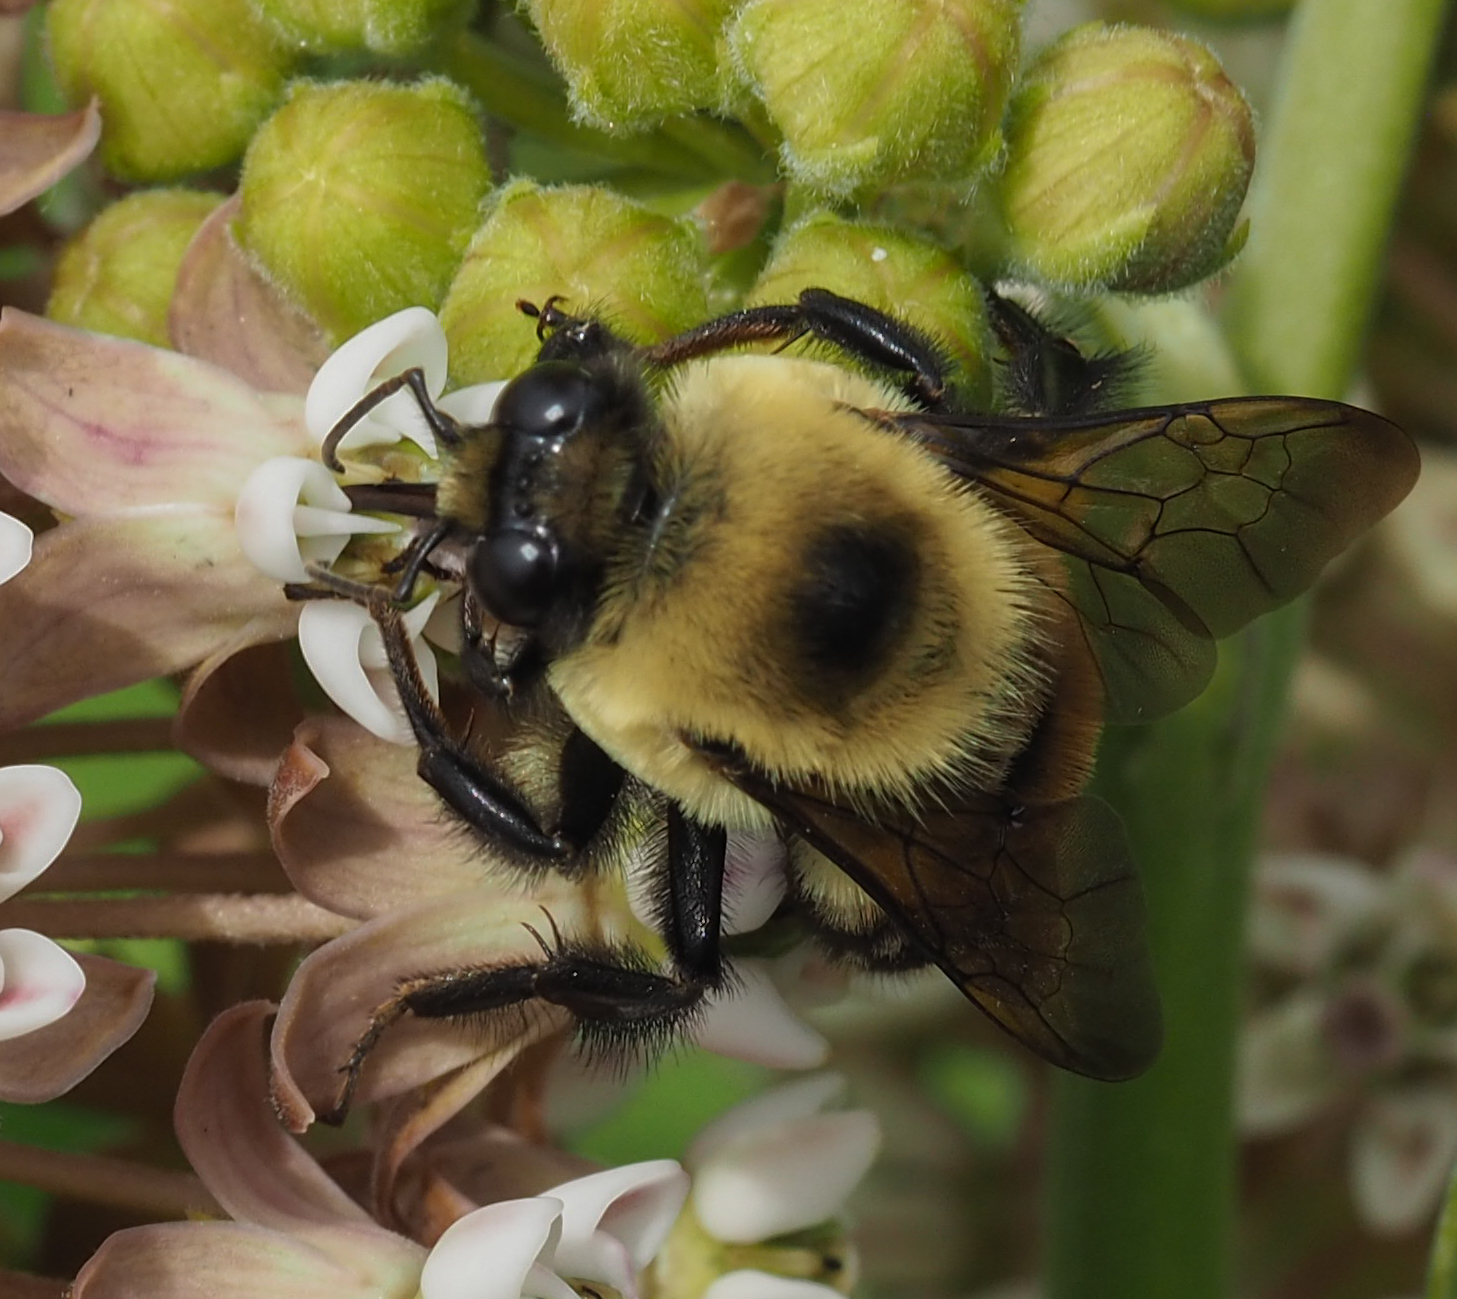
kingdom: Animalia
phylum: Arthropoda
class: Insecta
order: Hymenoptera
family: Apidae
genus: Bombus
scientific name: Bombus griseocollis
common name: Brown-belted bumble bee
